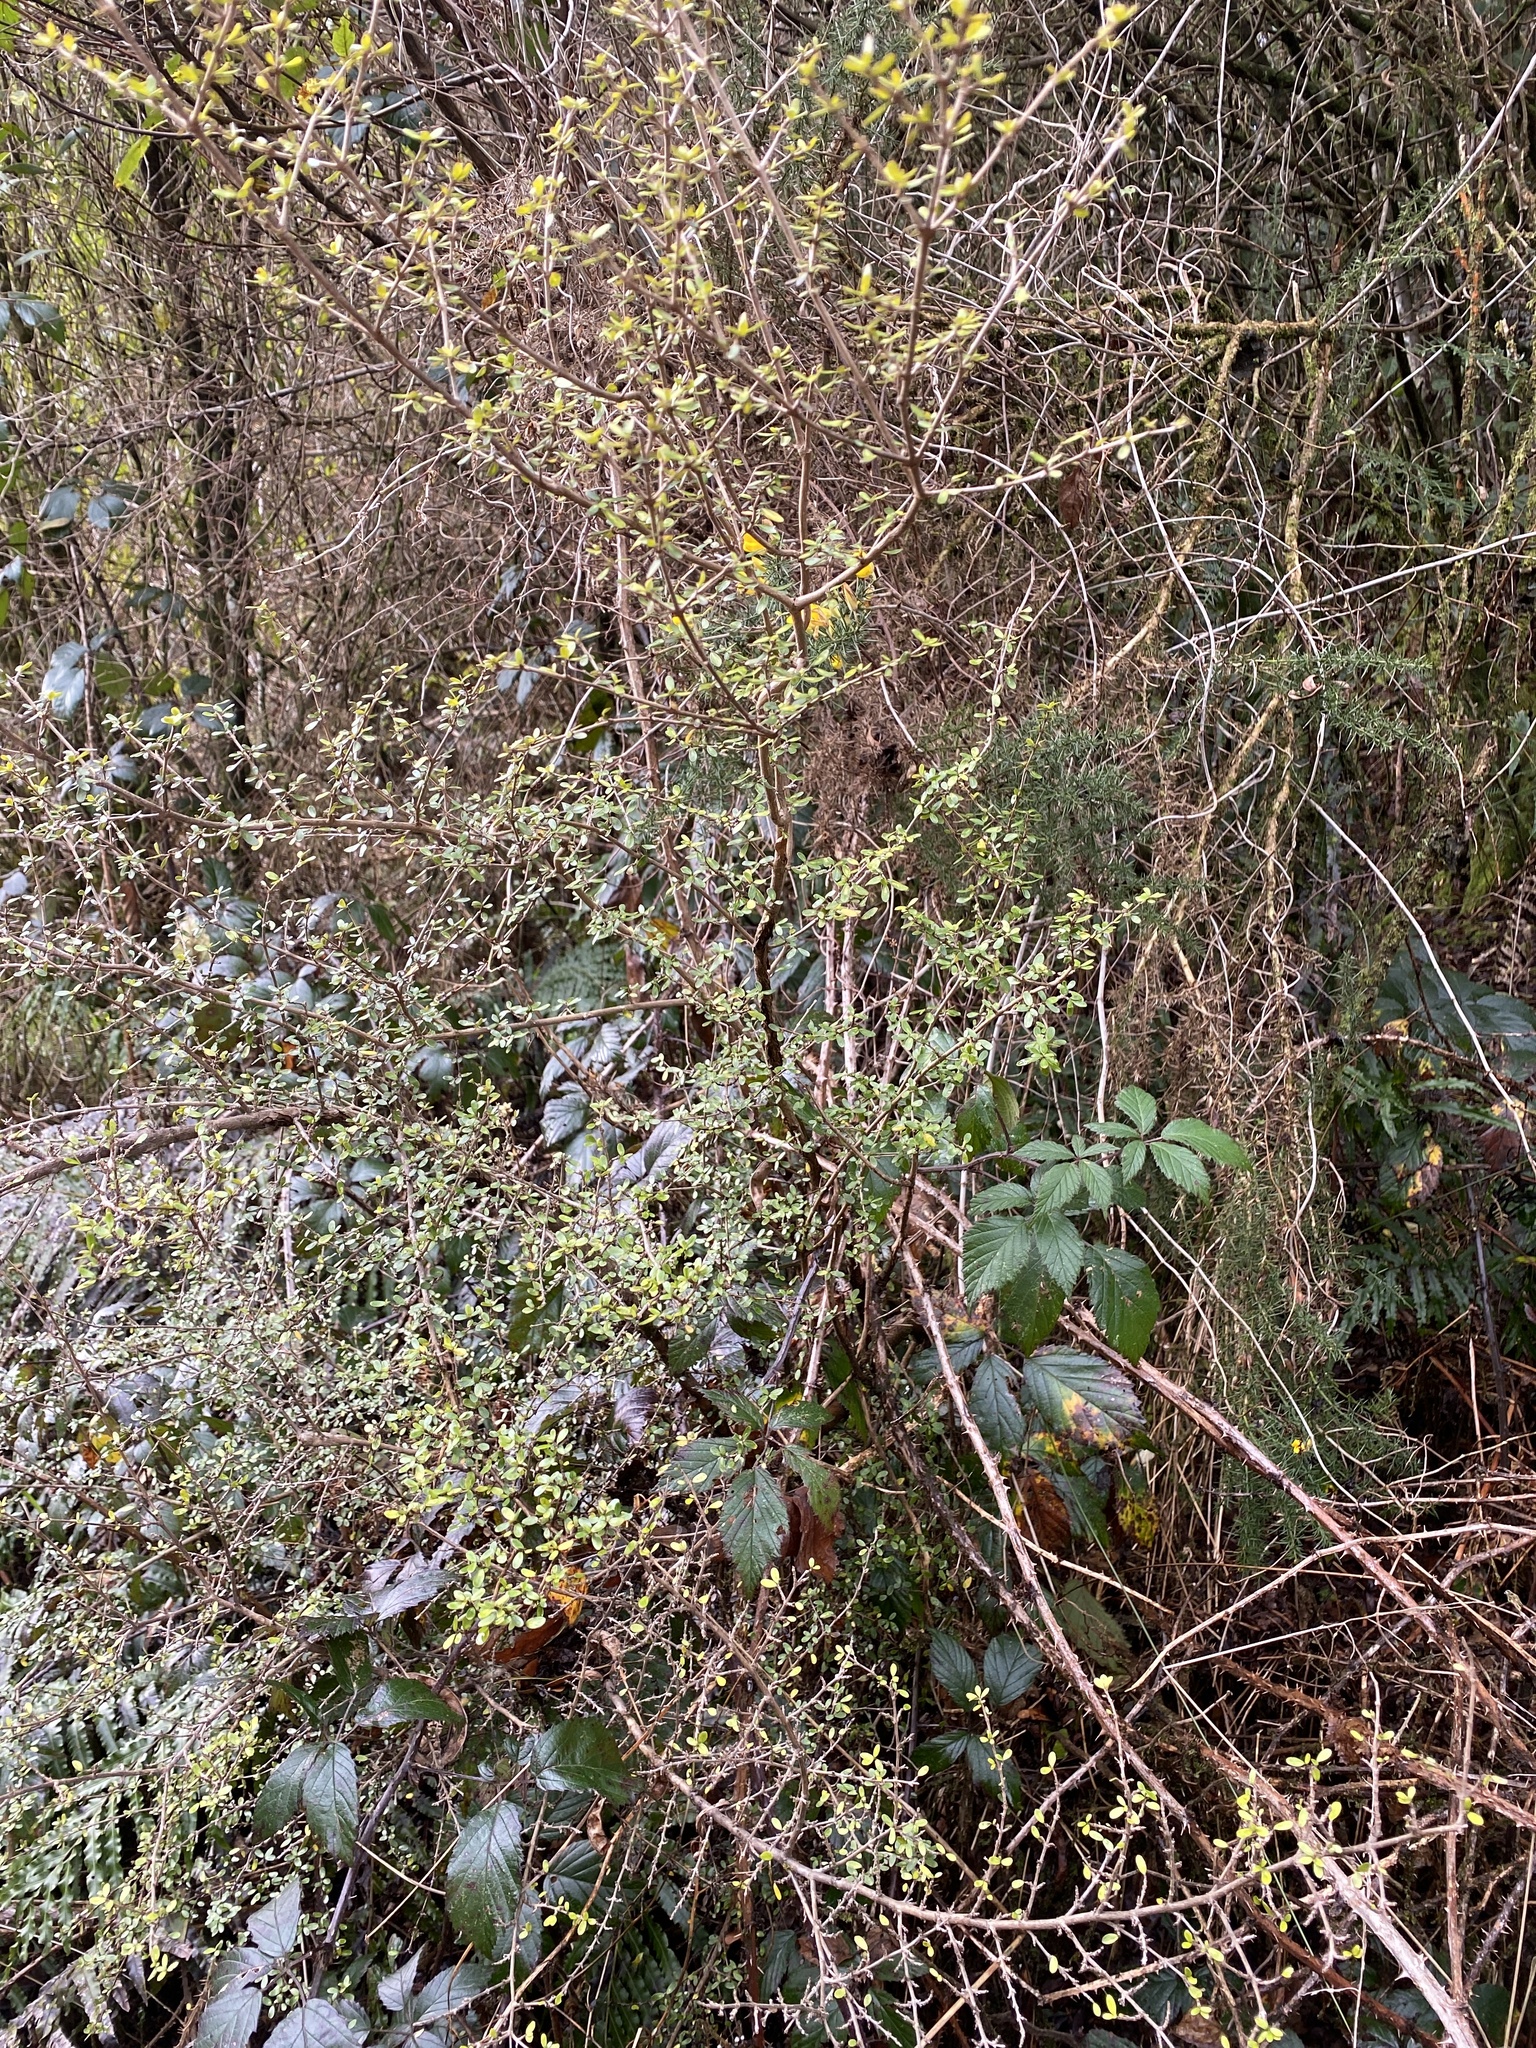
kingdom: Plantae
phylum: Tracheophyta
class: Magnoliopsida
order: Gentianales
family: Rubiaceae
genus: Coprosma
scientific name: Coprosma dumosa
